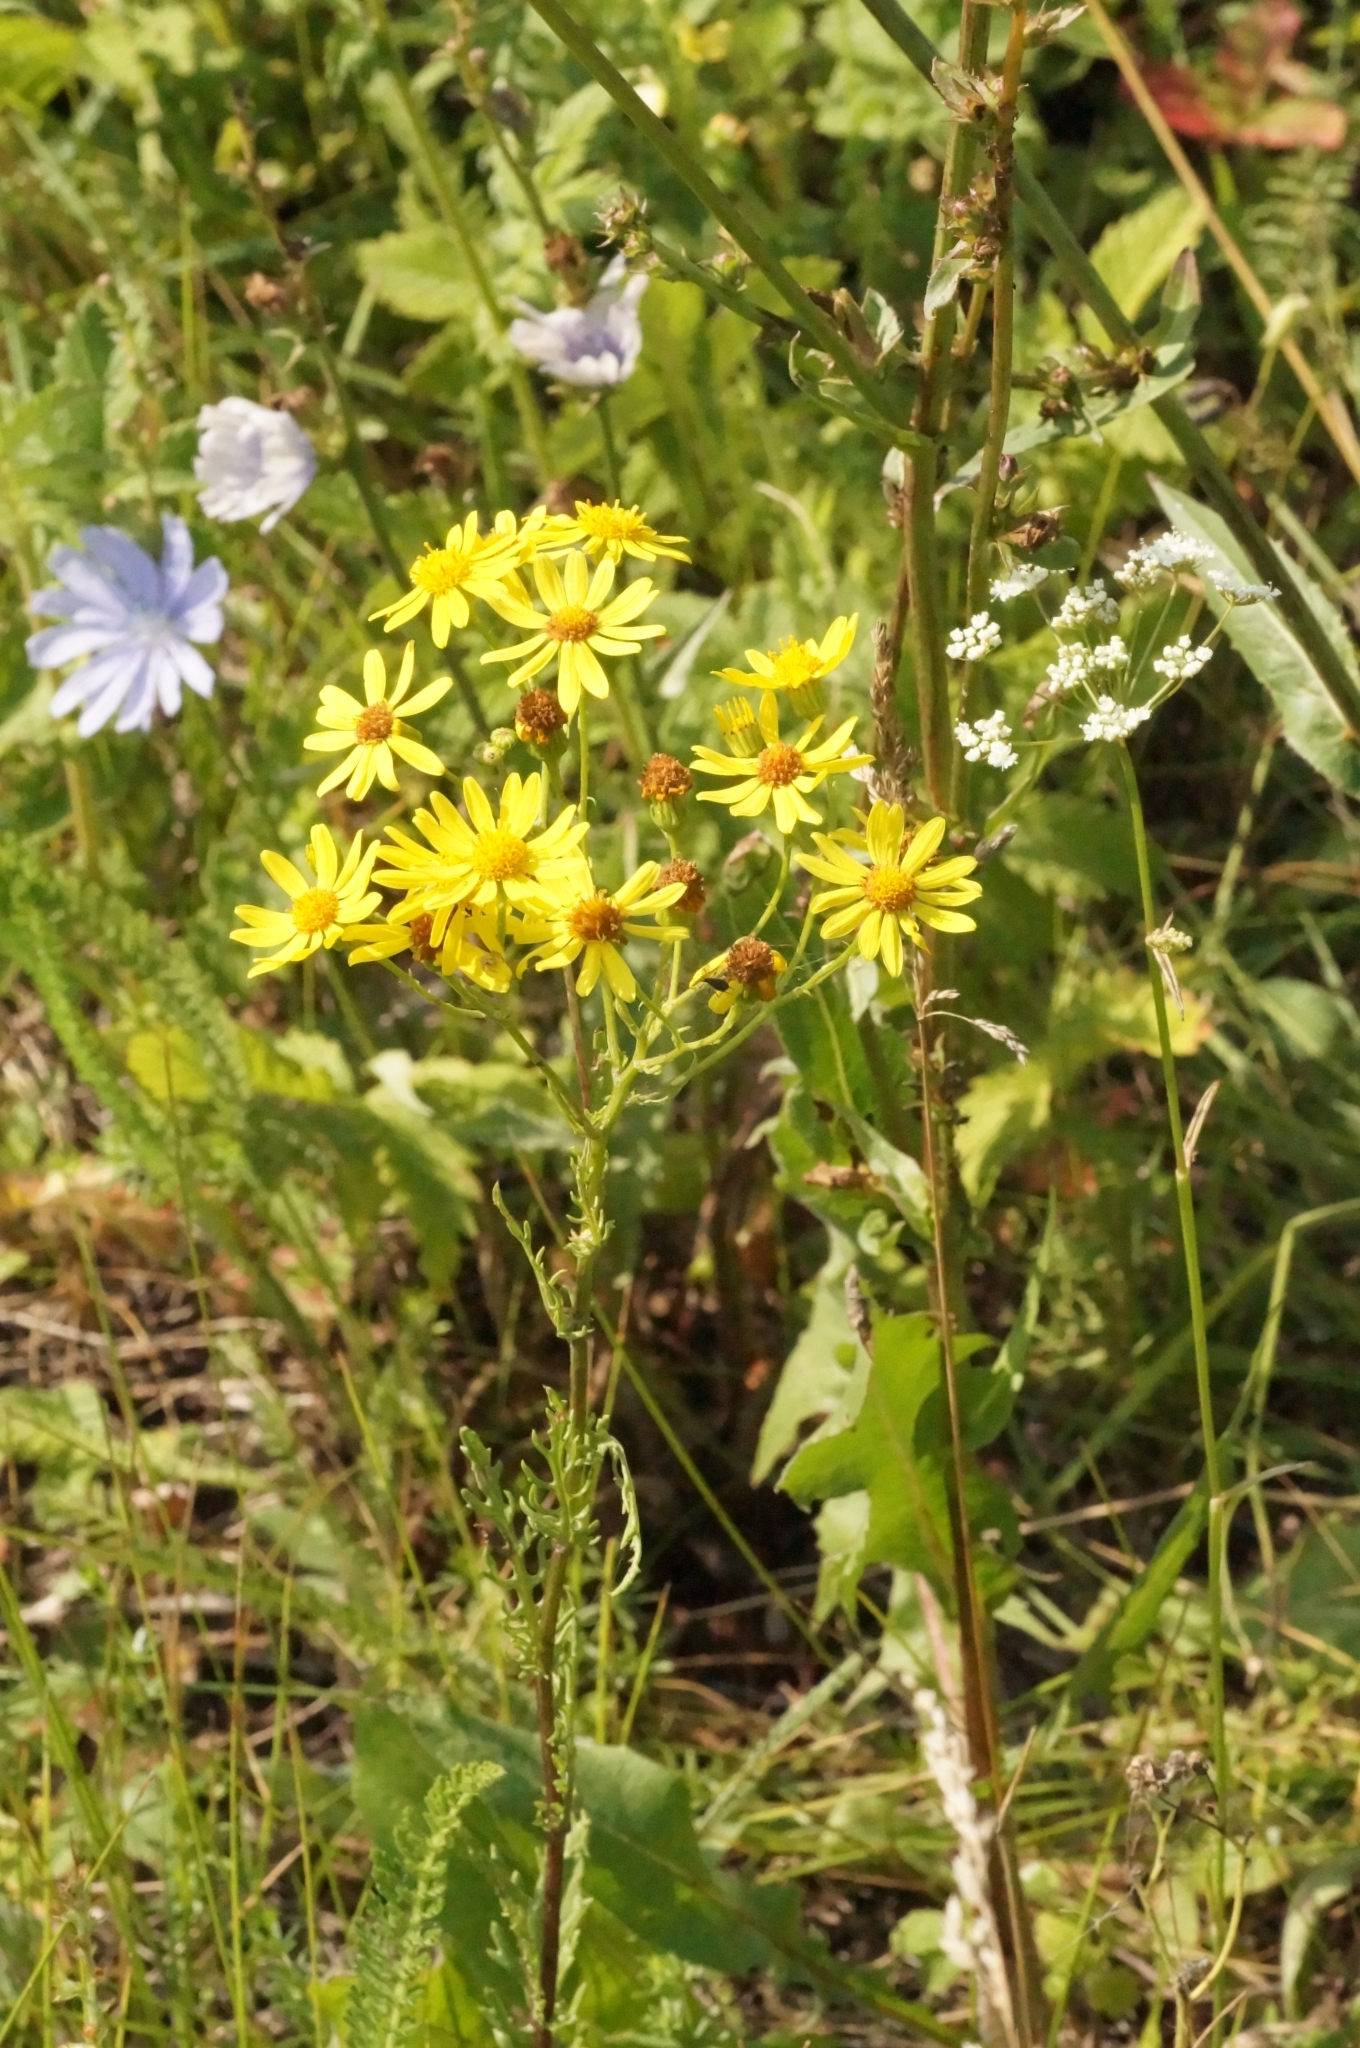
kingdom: Plantae
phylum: Tracheophyta
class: Magnoliopsida
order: Asterales
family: Asteraceae
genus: Jacobaea
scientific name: Jacobaea vulgaris
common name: Stinking willie
